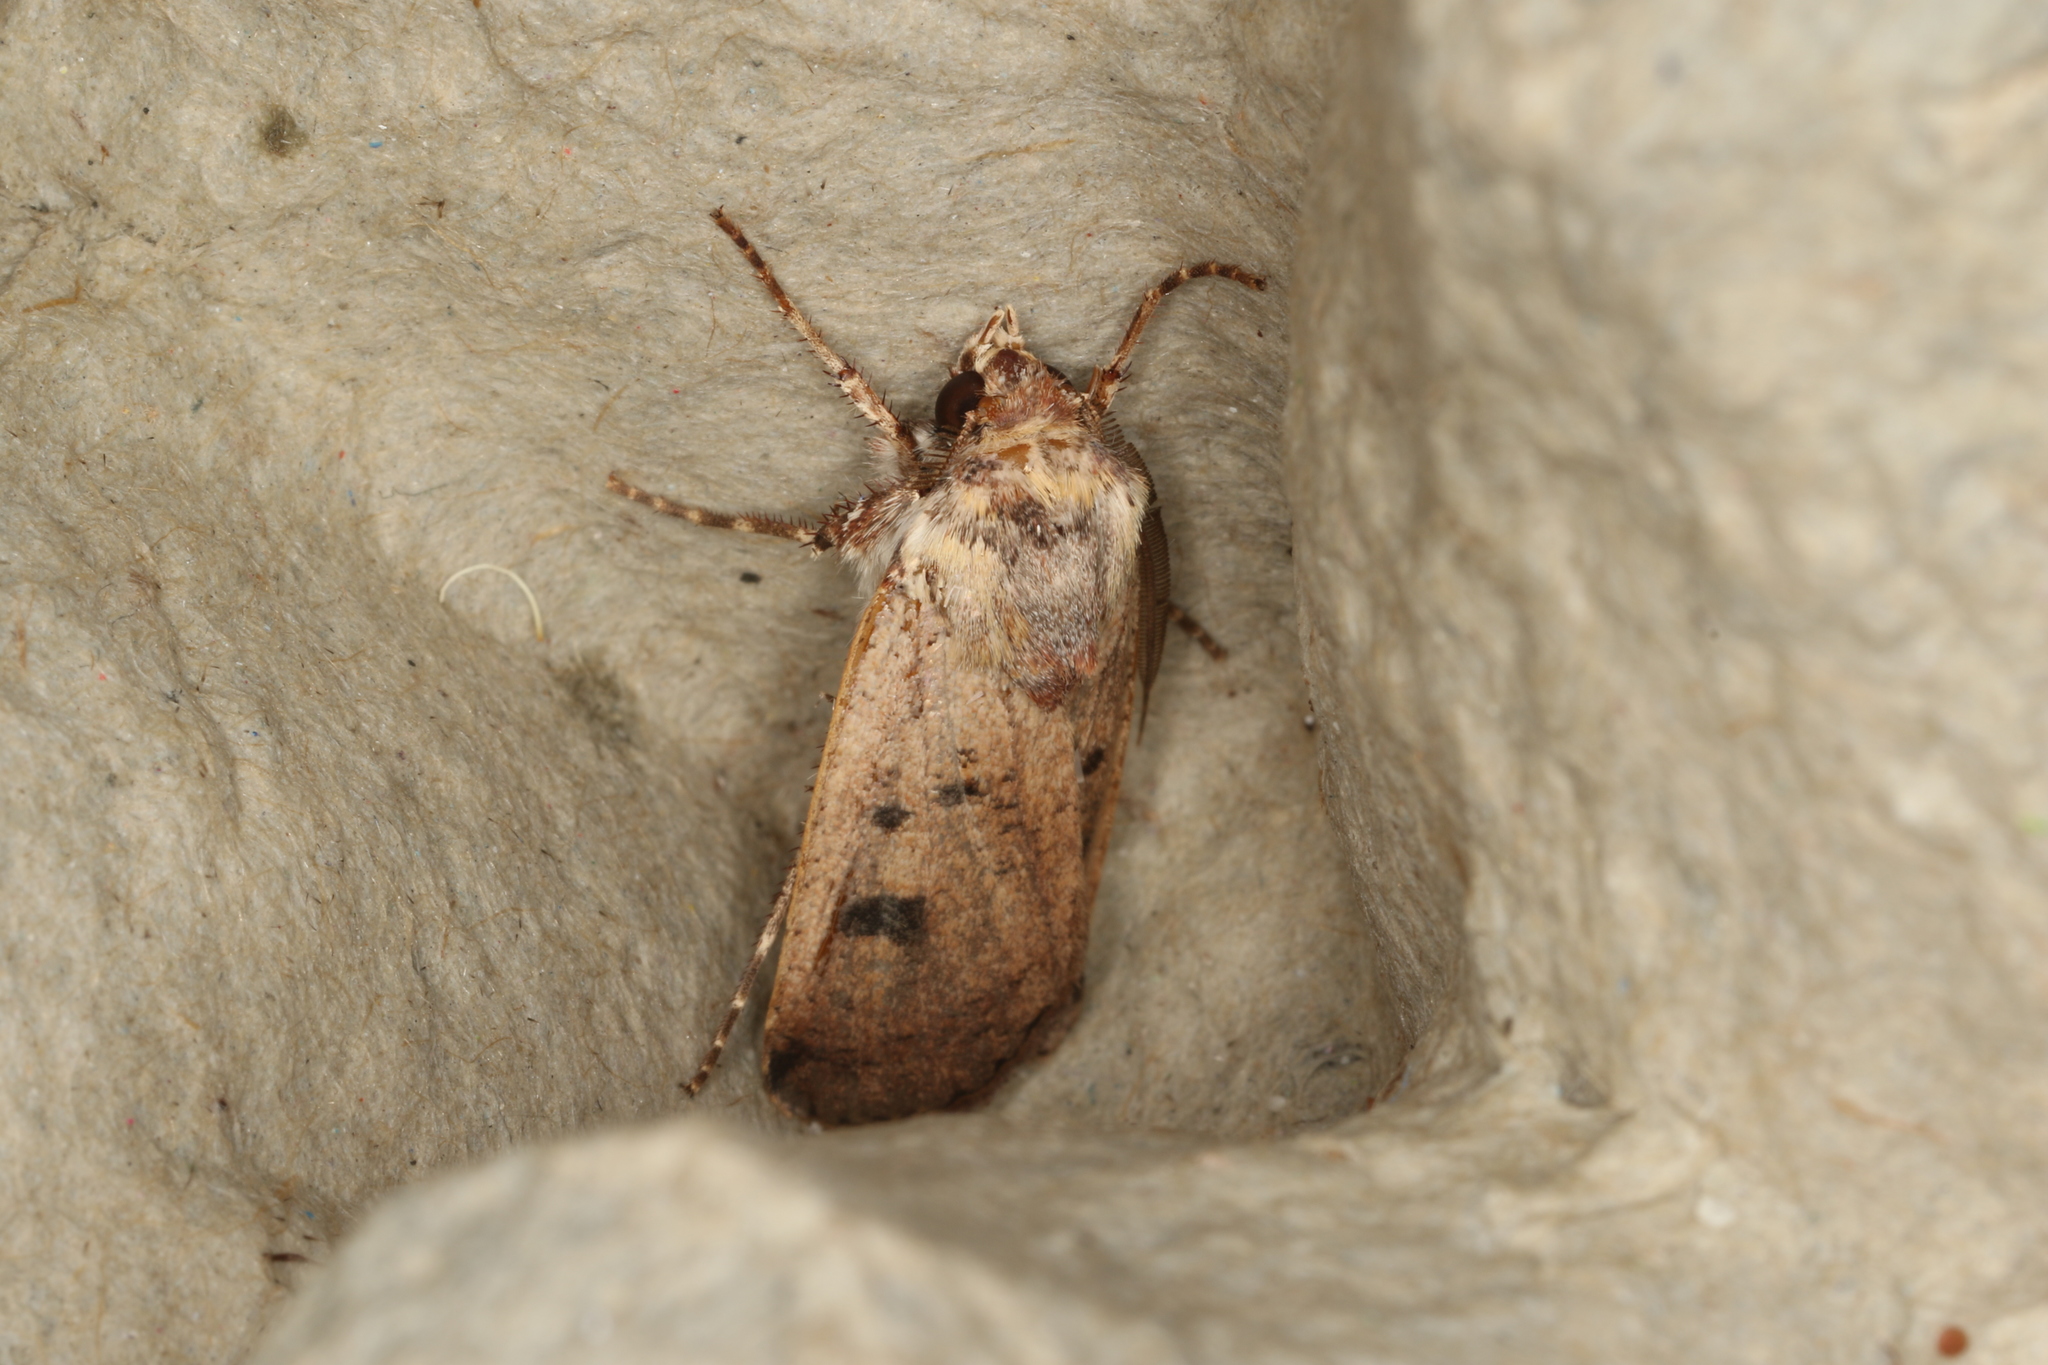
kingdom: Animalia
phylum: Arthropoda
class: Insecta
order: Lepidoptera
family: Noctuidae
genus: Agrotis
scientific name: Agrotis porphyricollis
